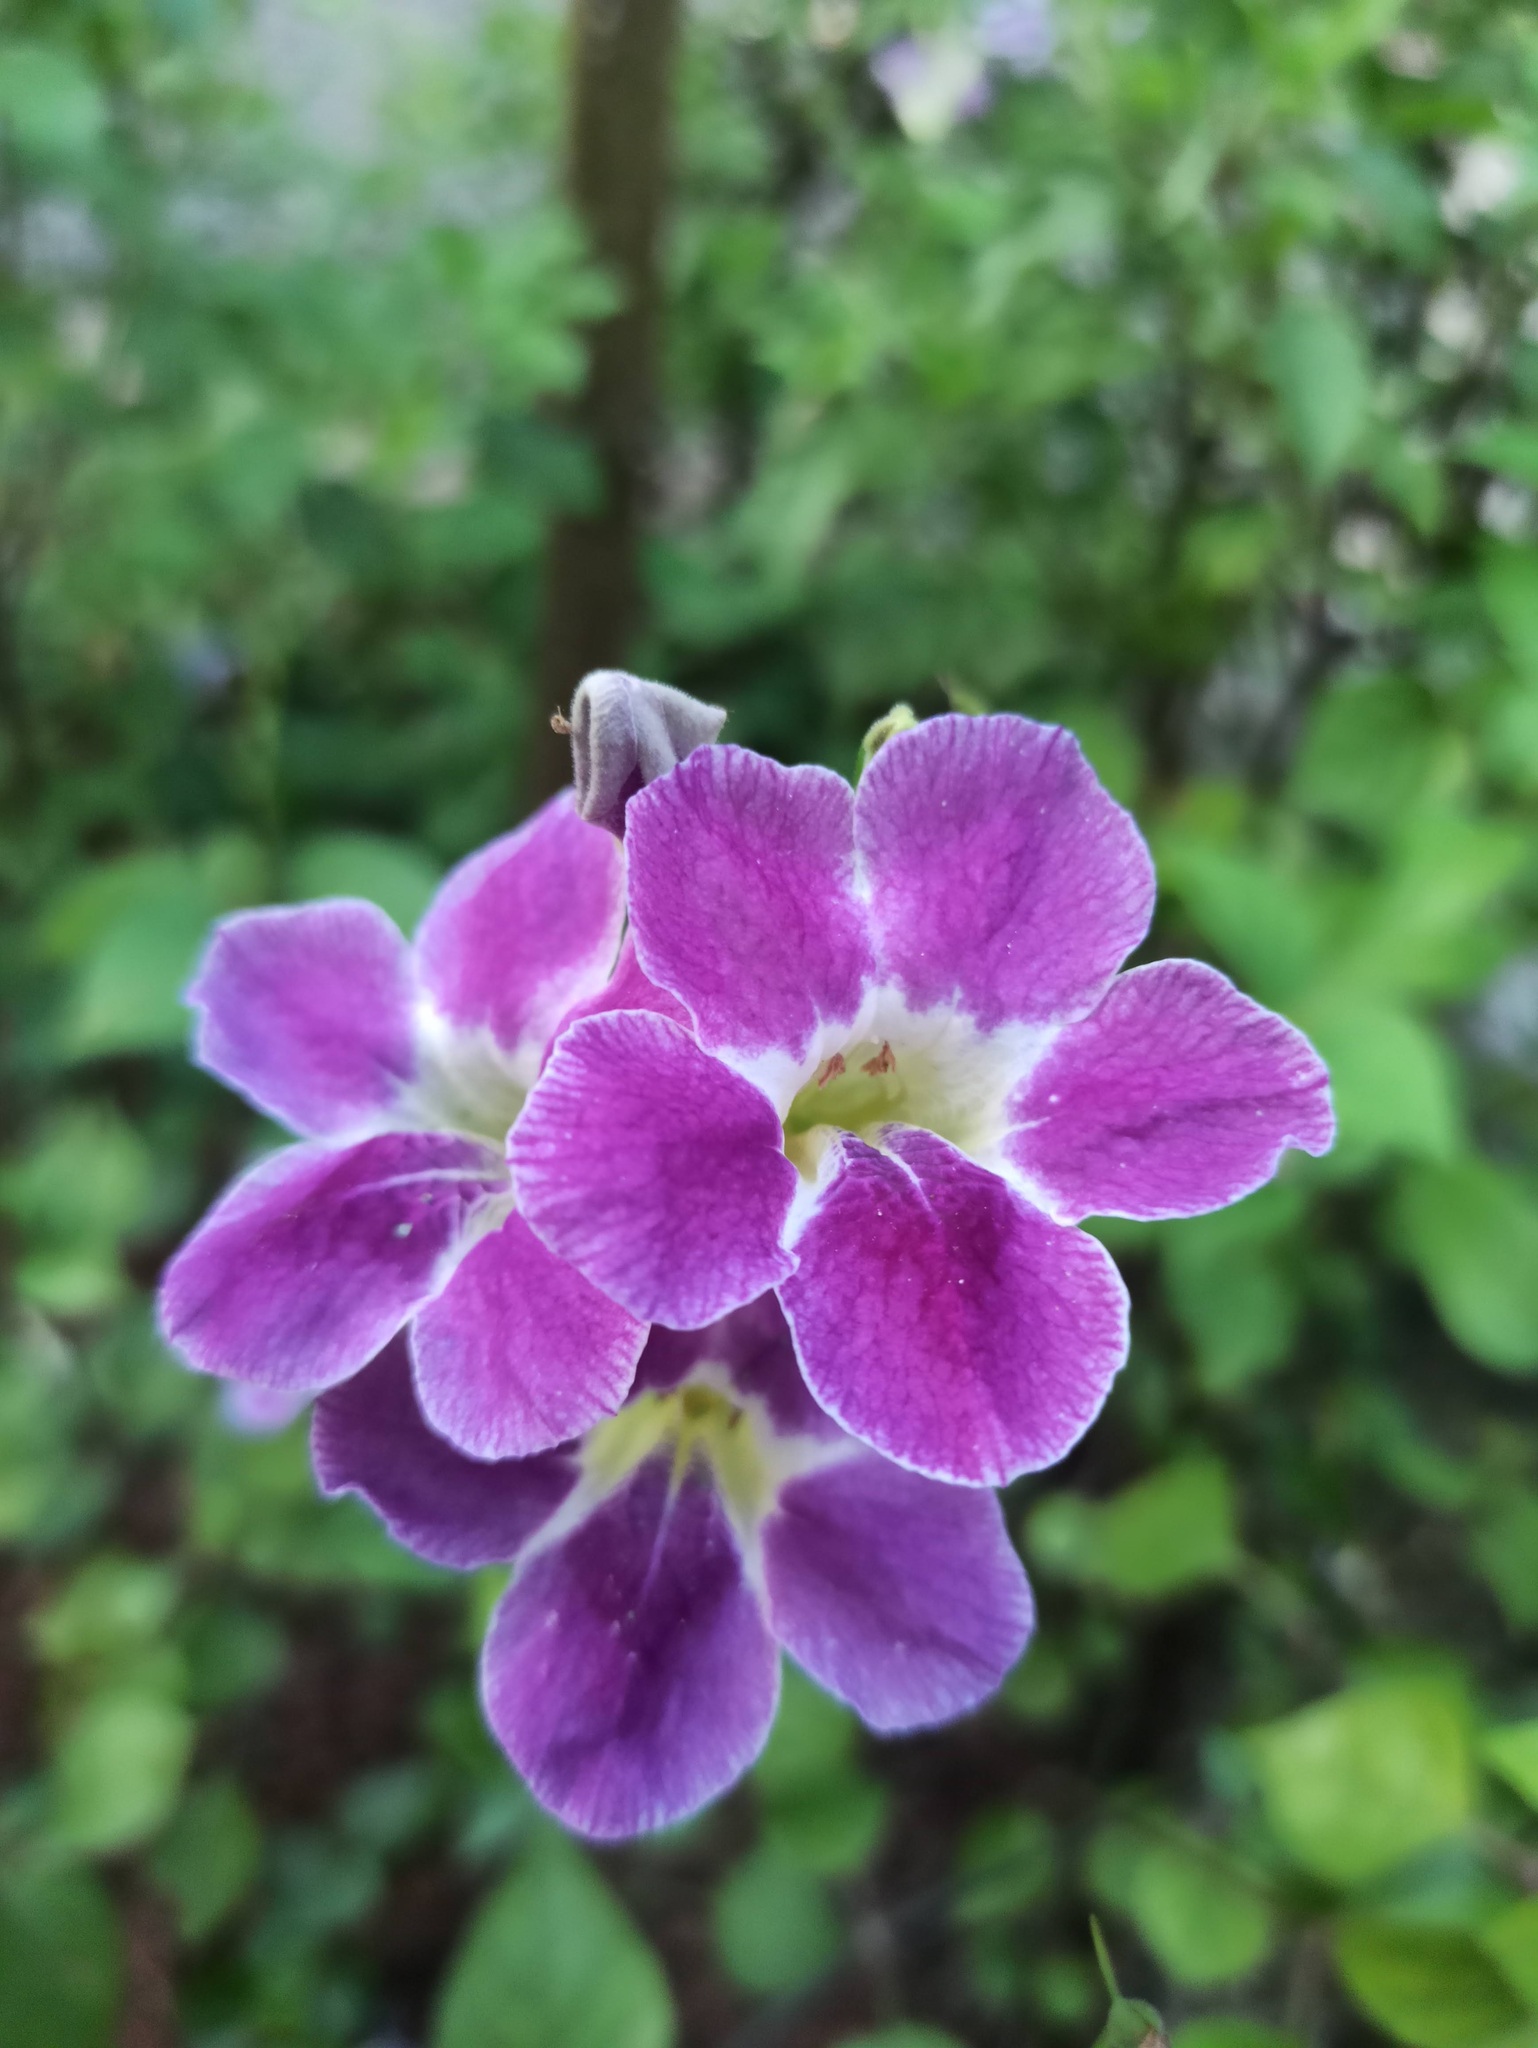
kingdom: Plantae
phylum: Tracheophyta
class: Magnoliopsida
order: Lamiales
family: Acanthaceae
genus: Asystasia
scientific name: Asystasia gangetica
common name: Chinese violet
